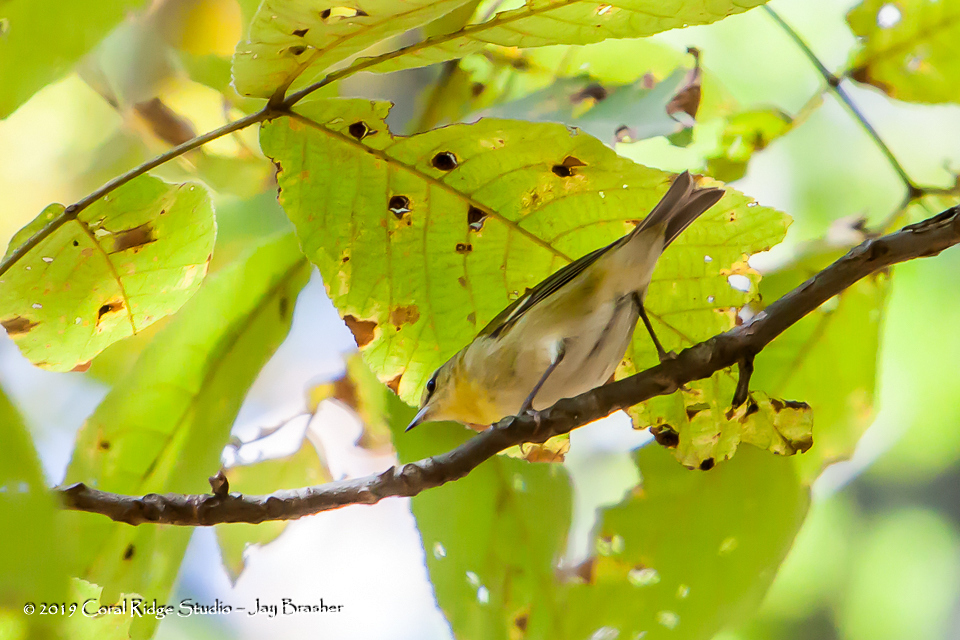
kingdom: Animalia
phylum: Chordata
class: Aves
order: Passeriformes
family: Parulidae
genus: Leiothlypis
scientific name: Leiothlypis peregrina
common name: Tennessee warbler
